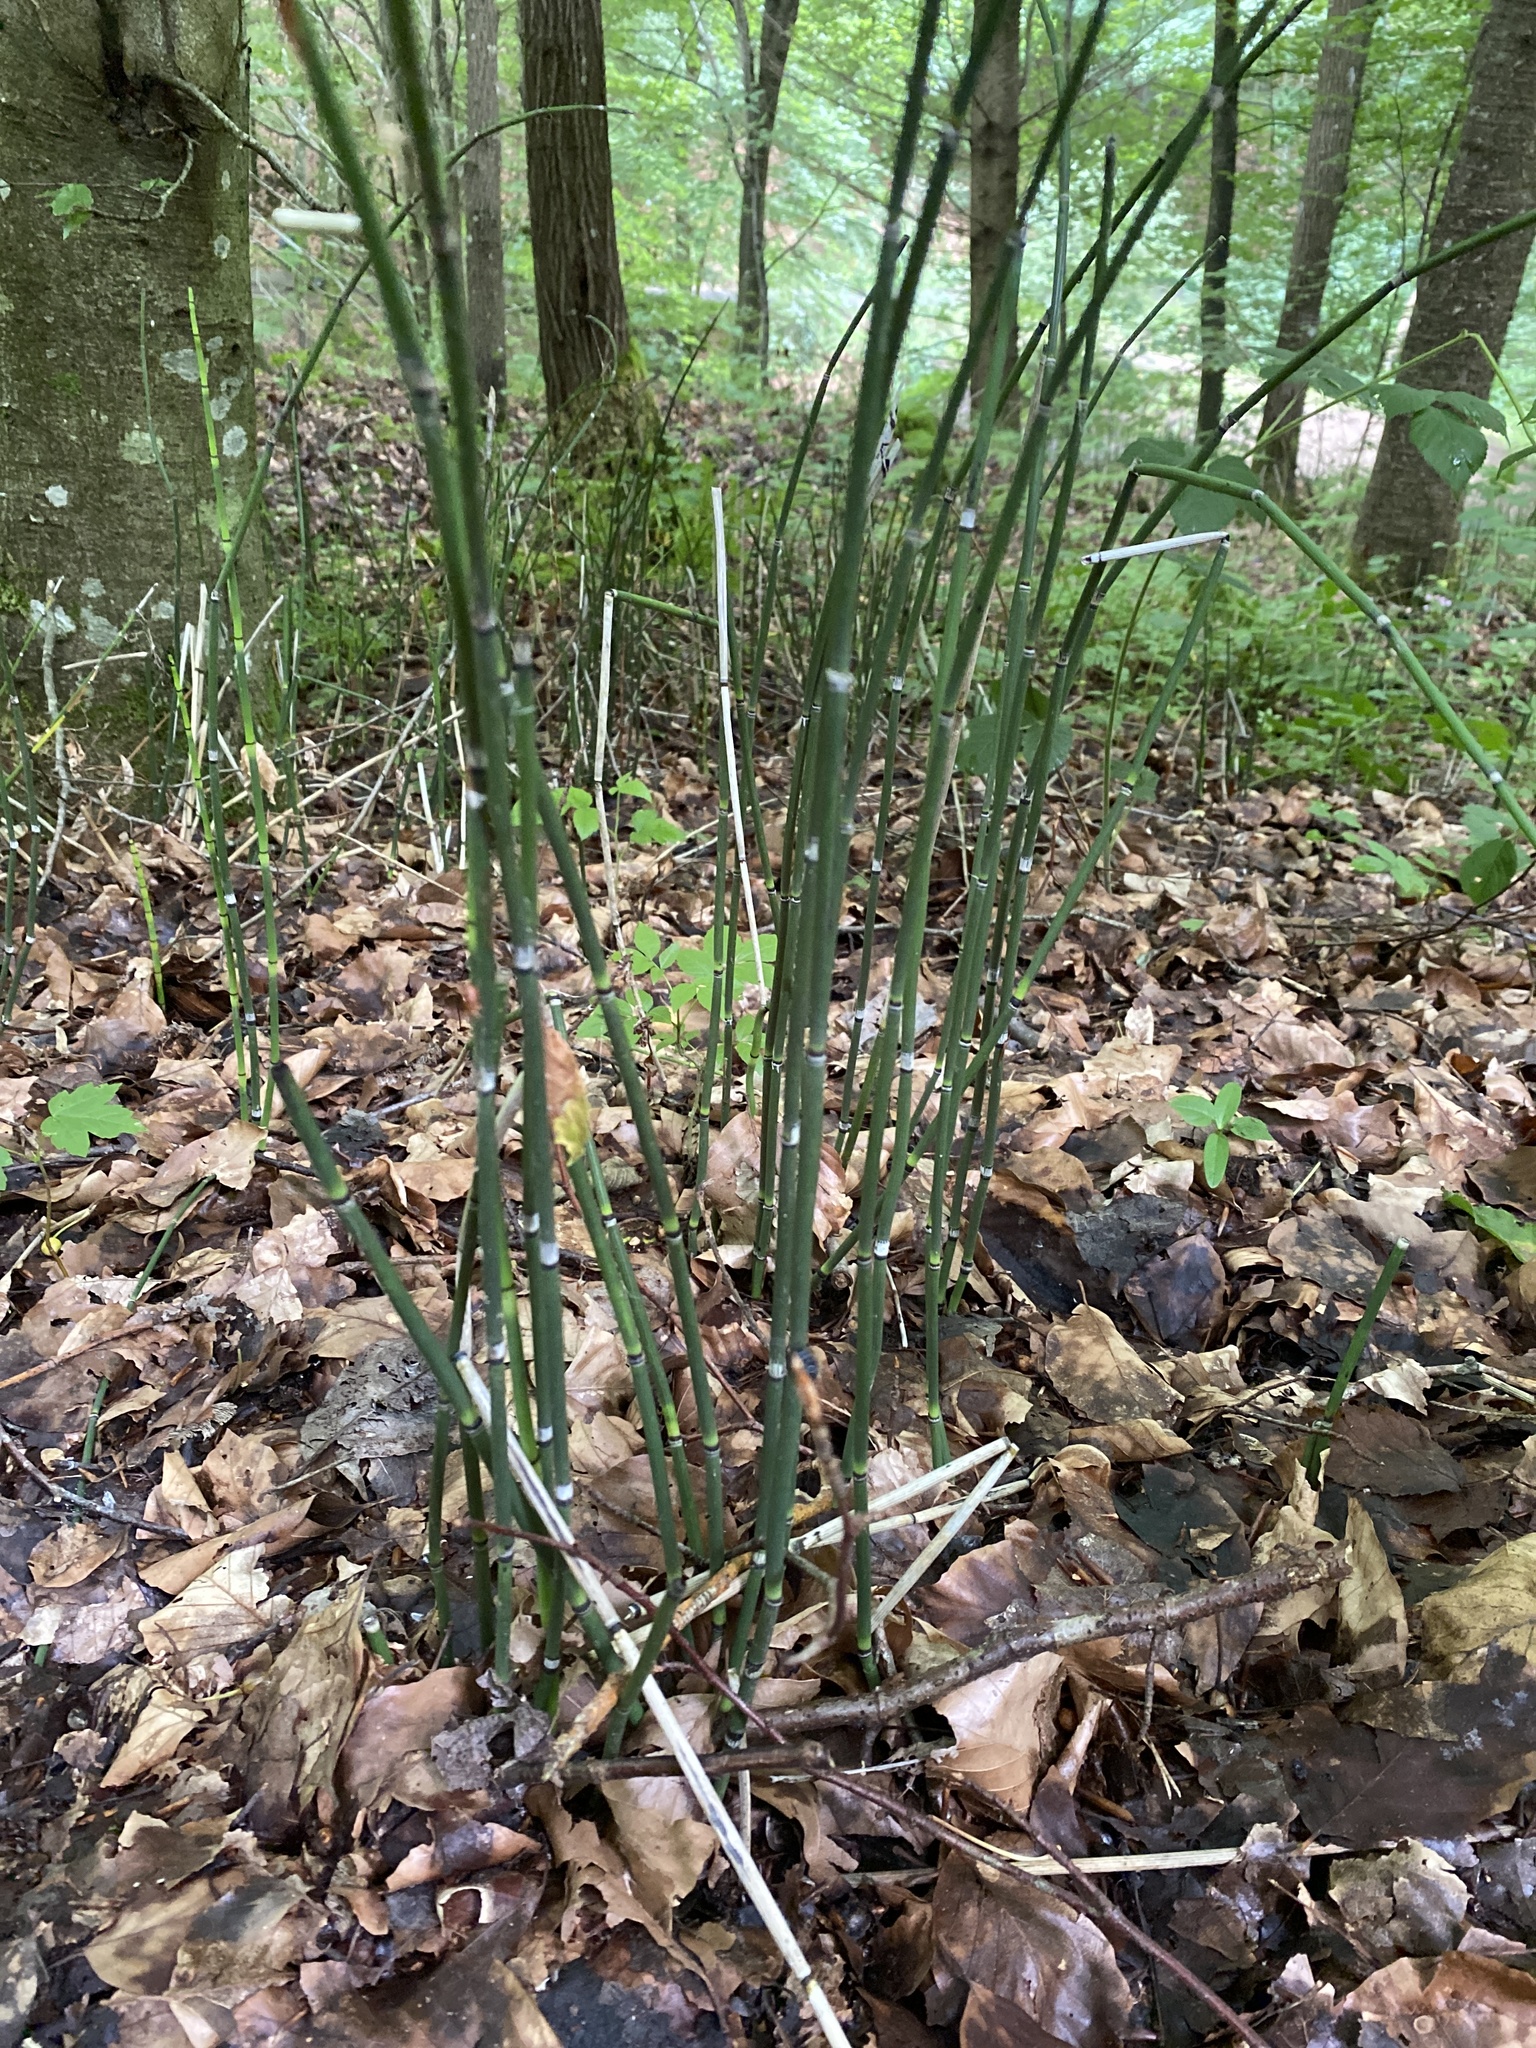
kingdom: Plantae
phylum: Tracheophyta
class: Polypodiopsida
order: Equisetales
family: Equisetaceae
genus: Equisetum
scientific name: Equisetum hyemale
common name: Rough horsetail
